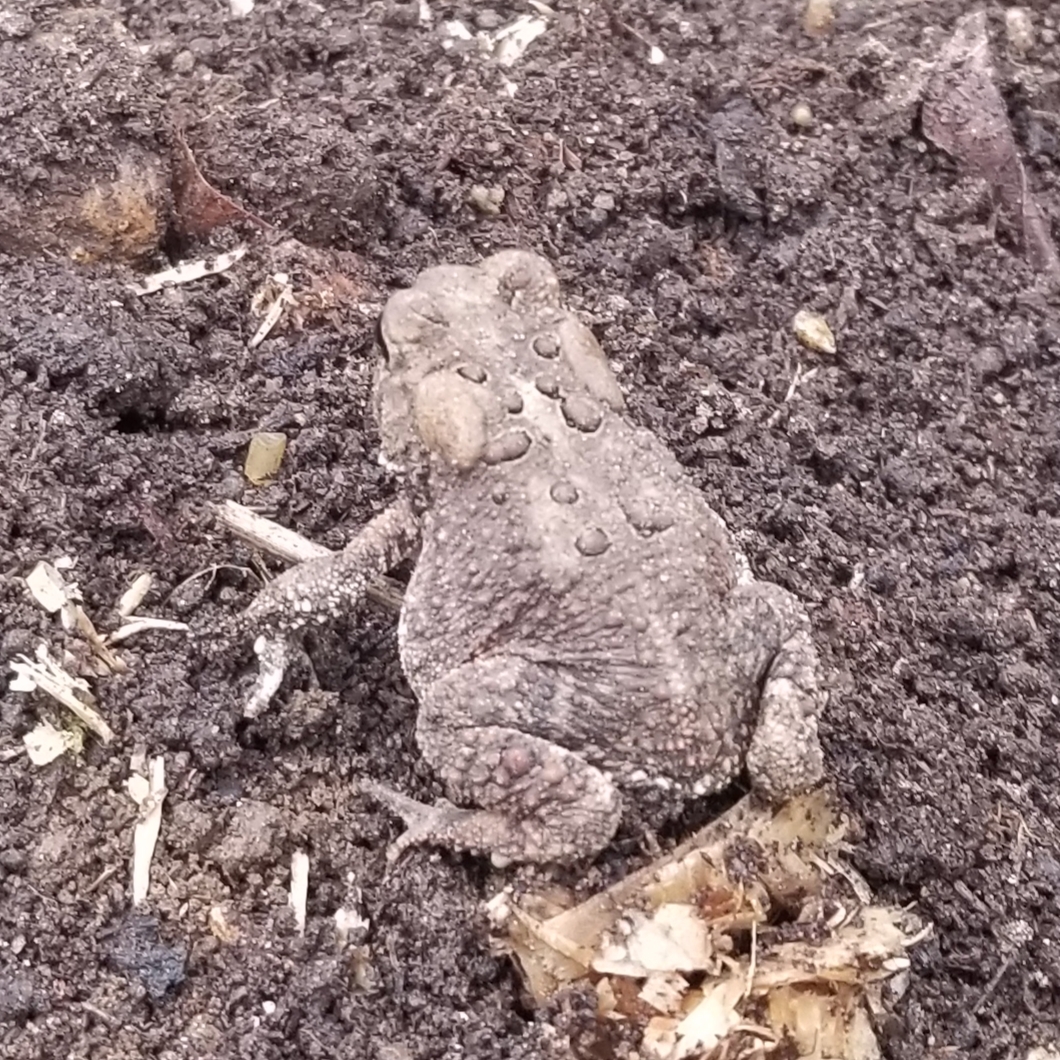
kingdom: Animalia
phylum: Chordata
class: Amphibia
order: Anura
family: Bufonidae
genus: Anaxyrus
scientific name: Anaxyrus americanus
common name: American toad
